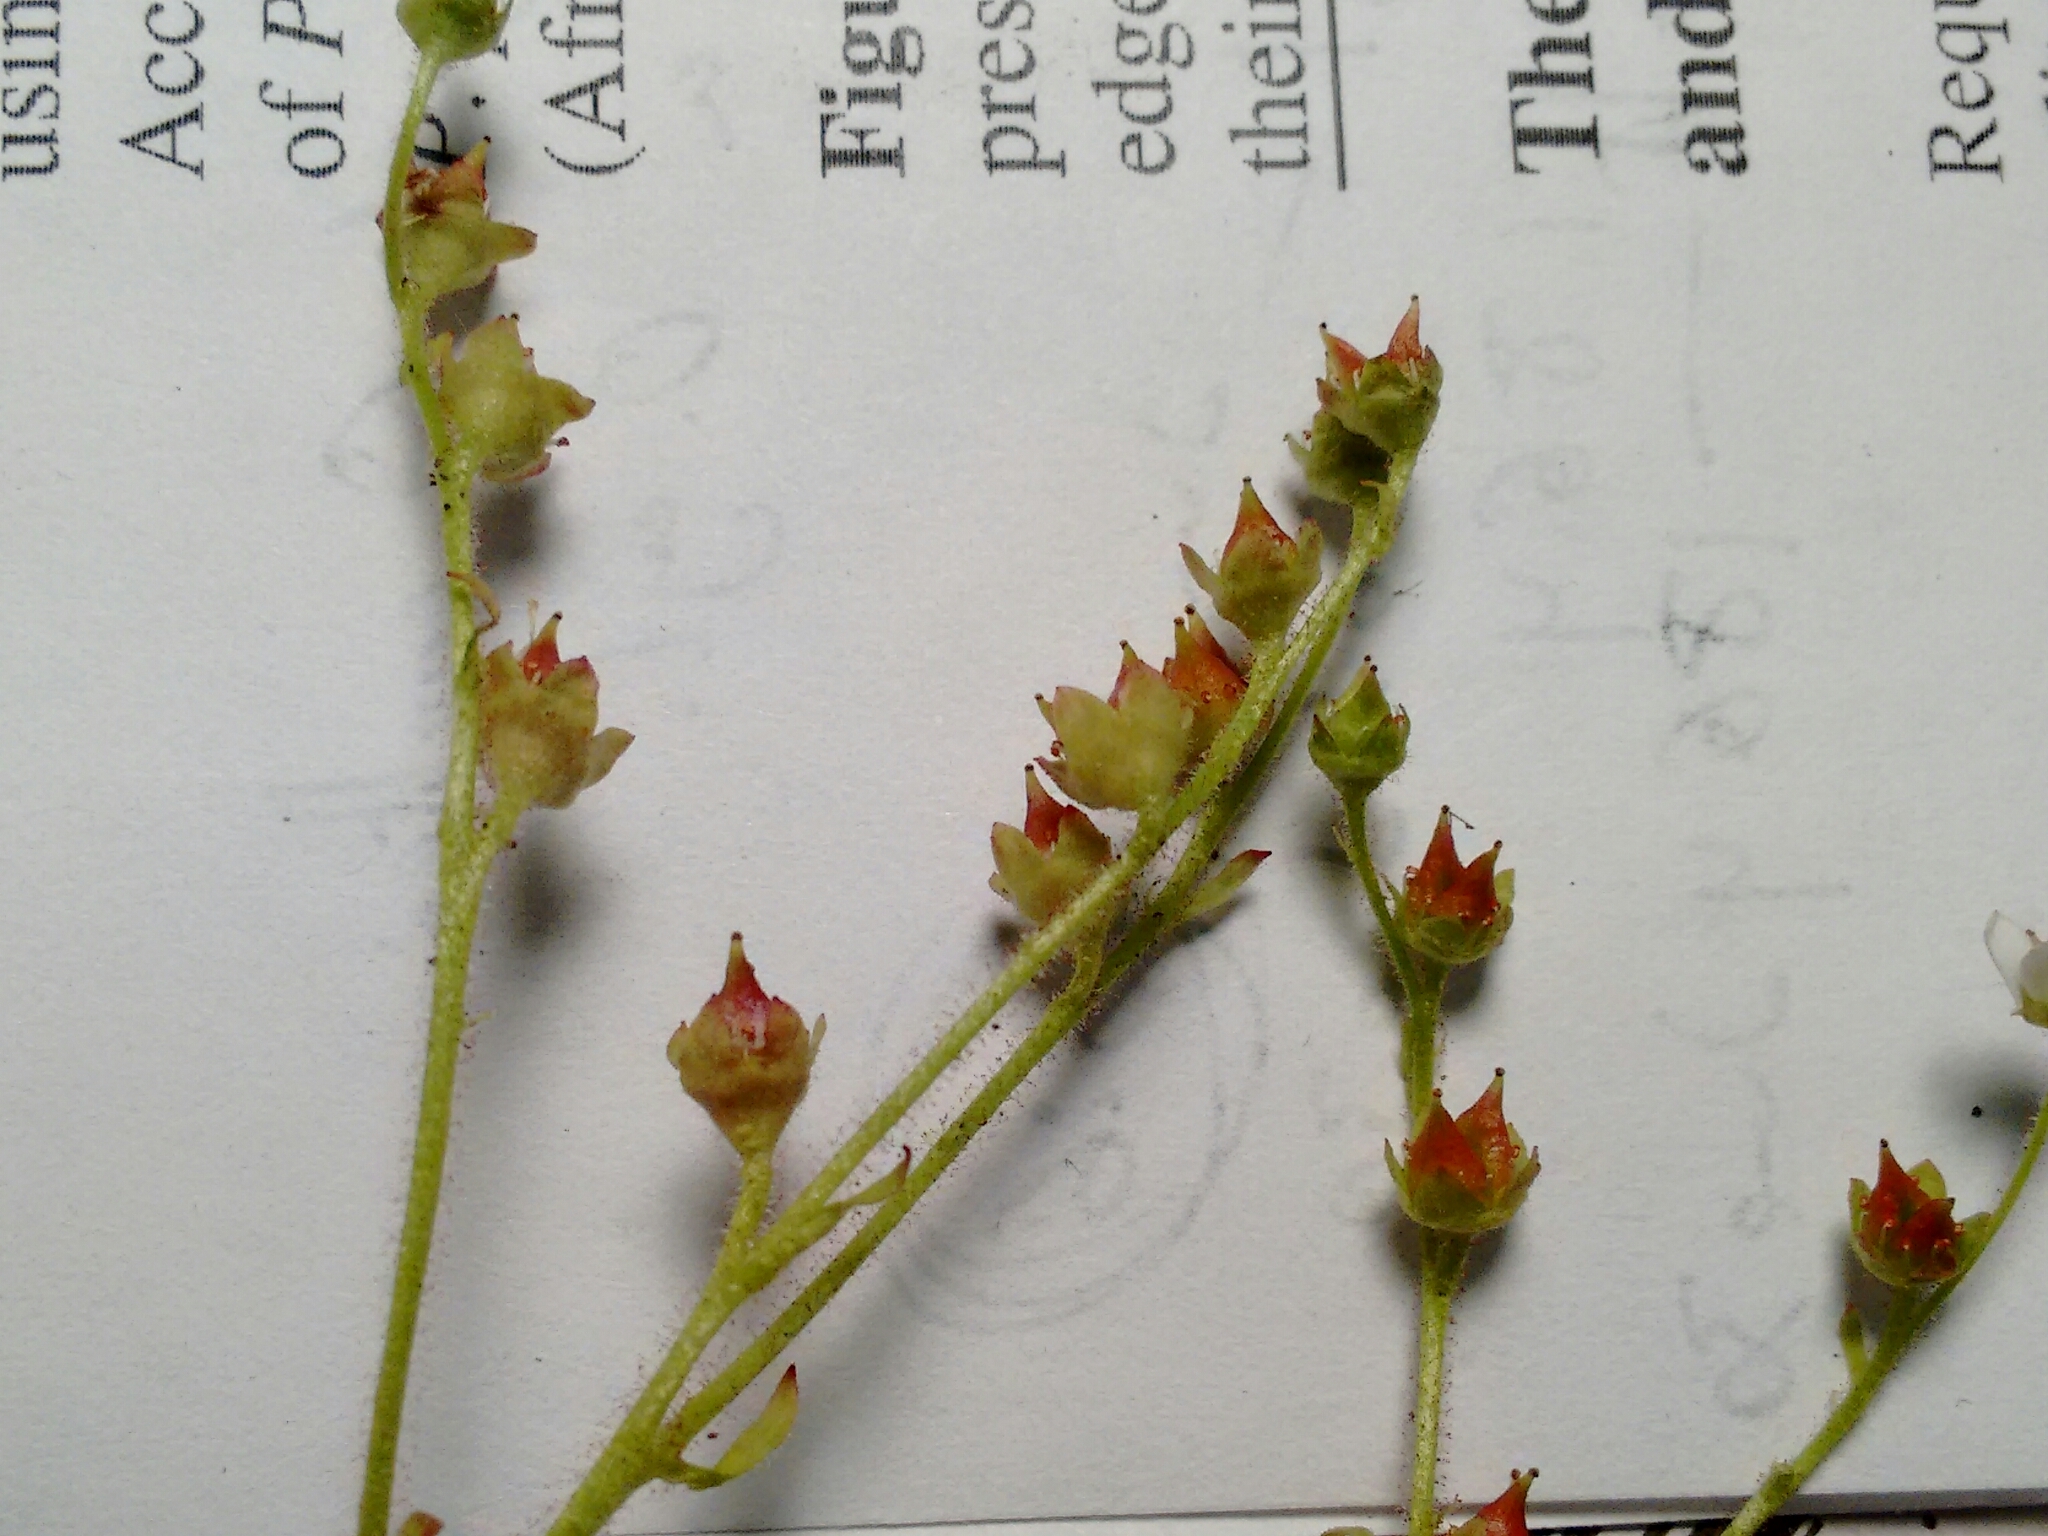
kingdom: Plantae
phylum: Tracheophyta
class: Magnoliopsida
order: Saxifragales
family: Saxifragaceae
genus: Micranthes
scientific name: Micranthes virginiensis
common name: Early saxifrage
